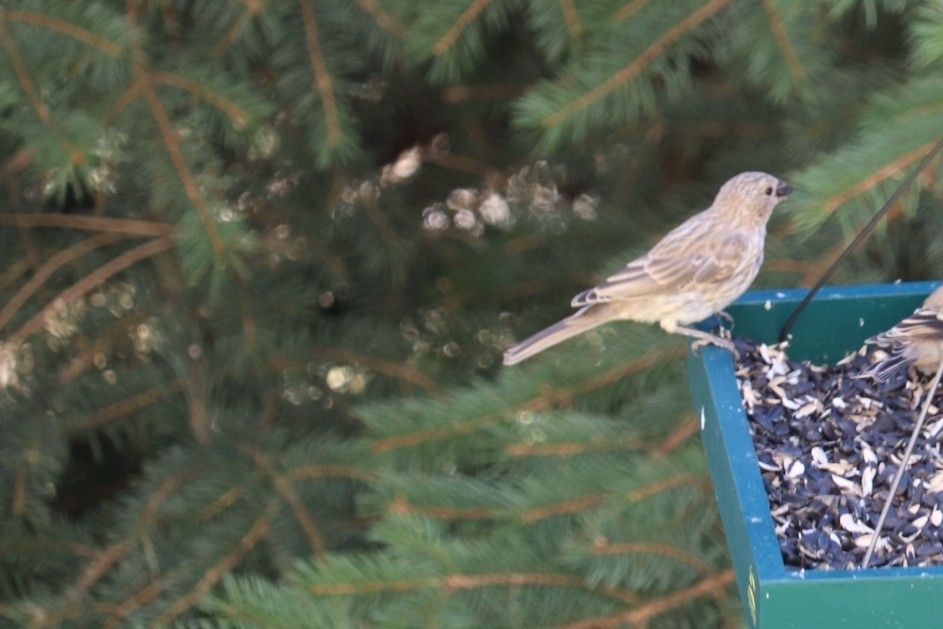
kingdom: Animalia
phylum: Chordata
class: Aves
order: Passeriformes
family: Fringillidae
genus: Haemorhous
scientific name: Haemorhous mexicanus
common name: House finch
